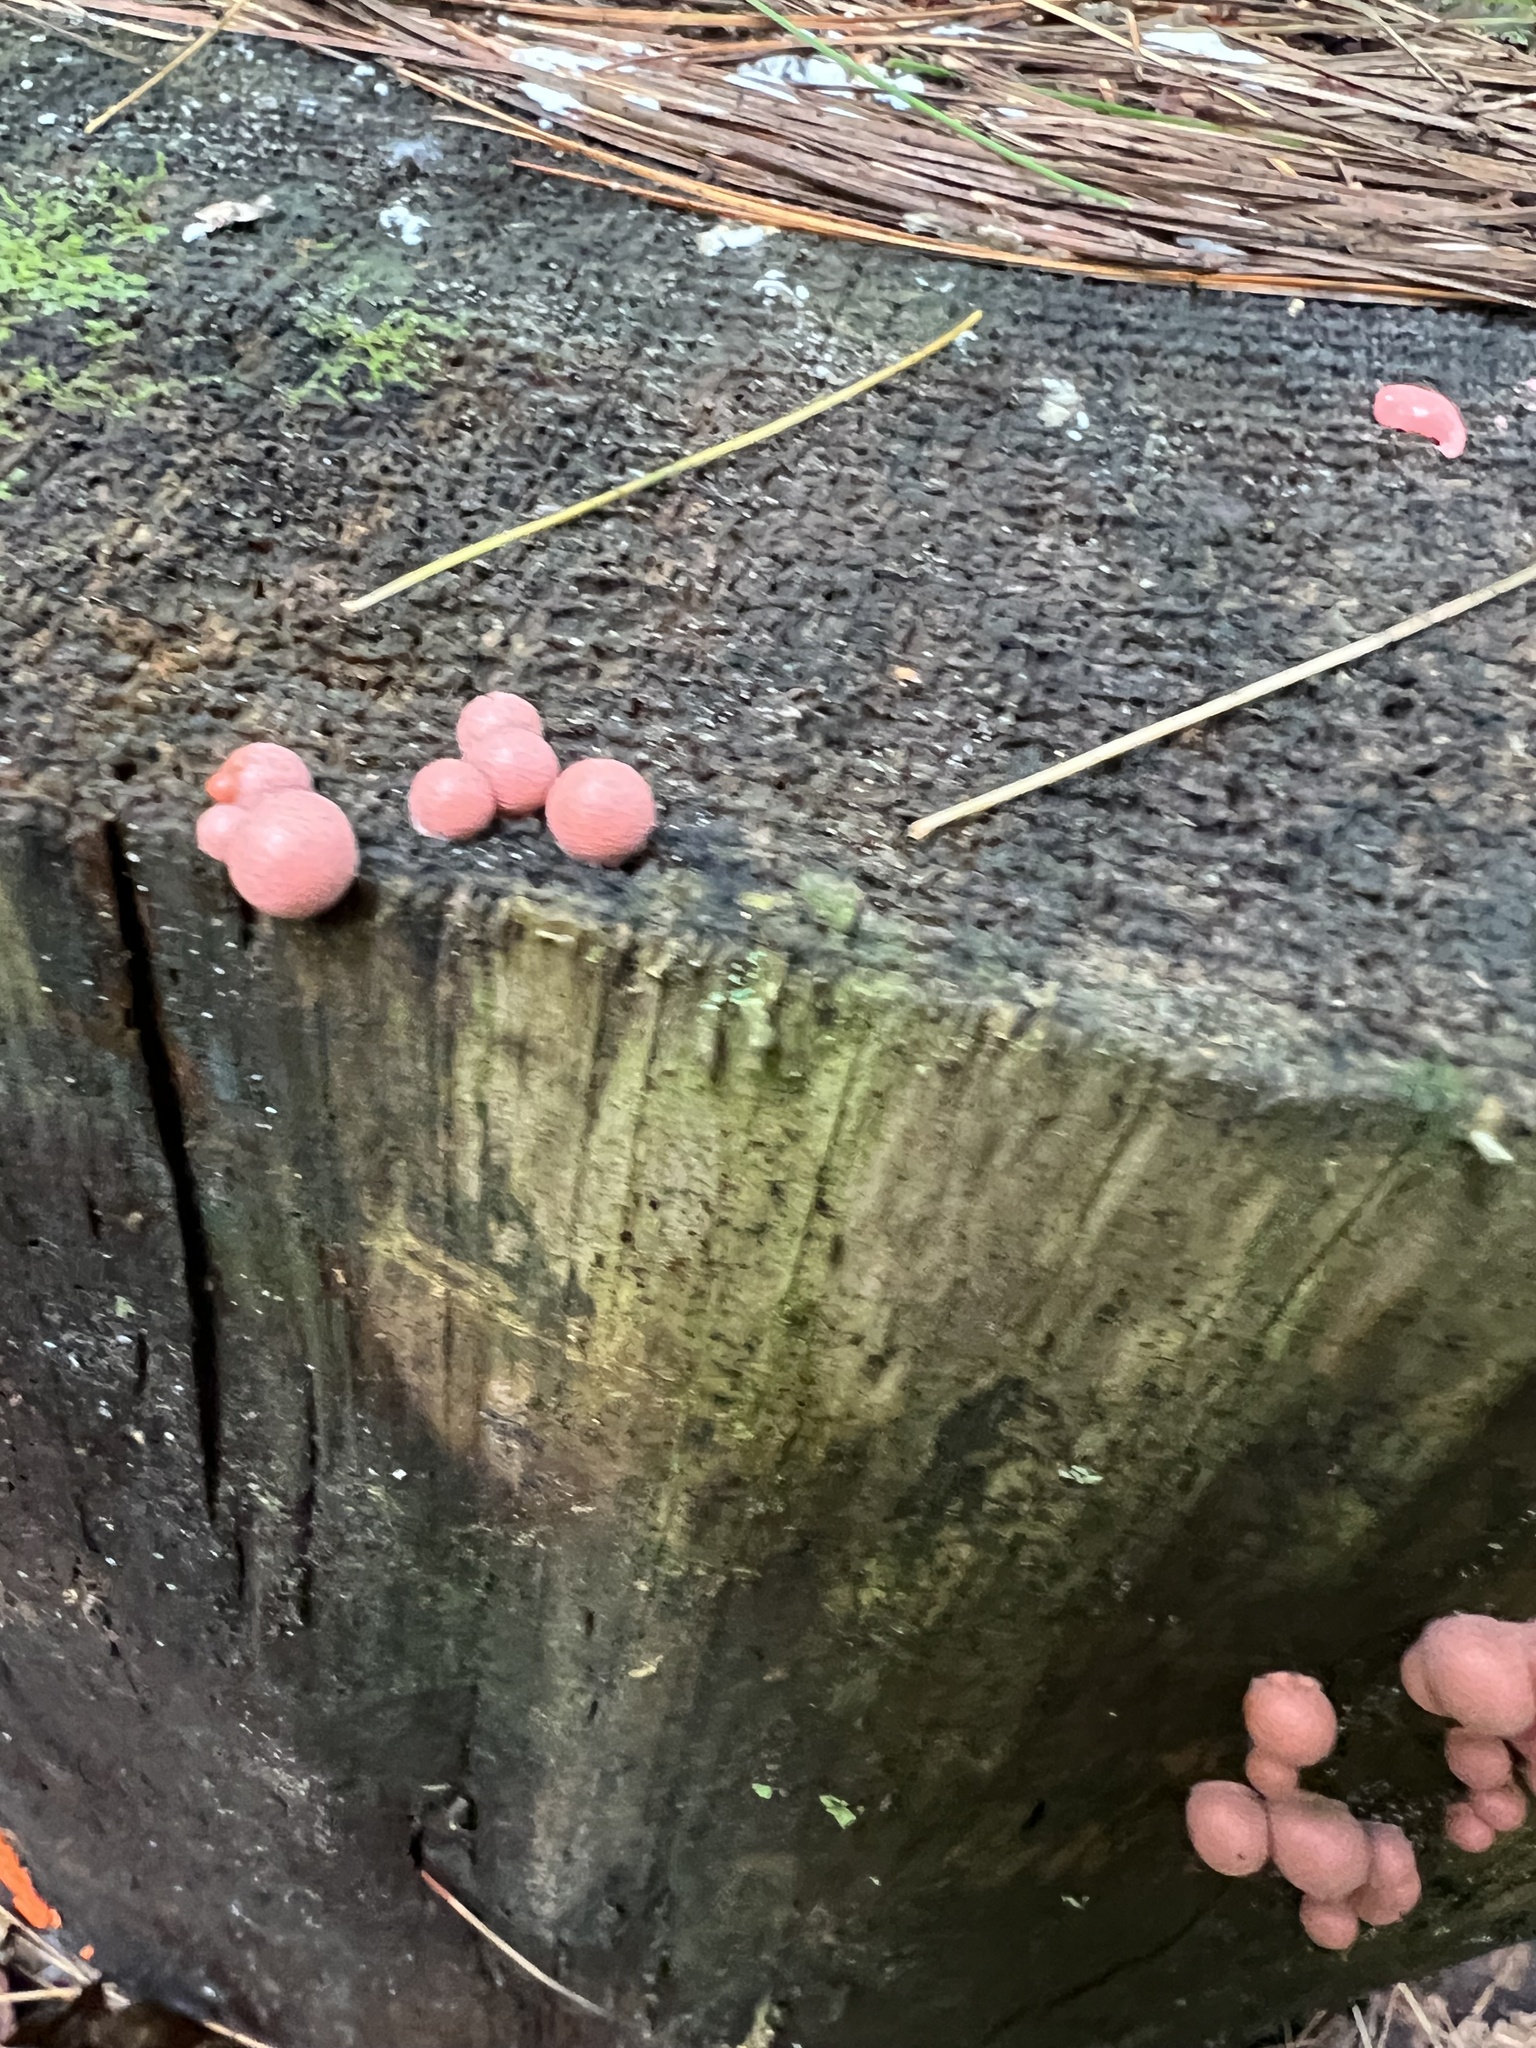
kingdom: Protozoa
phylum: Mycetozoa
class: Myxomycetes
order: Cribrariales
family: Tubiferaceae
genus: Lycogala
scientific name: Lycogala epidendrum
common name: Wolf's milk
